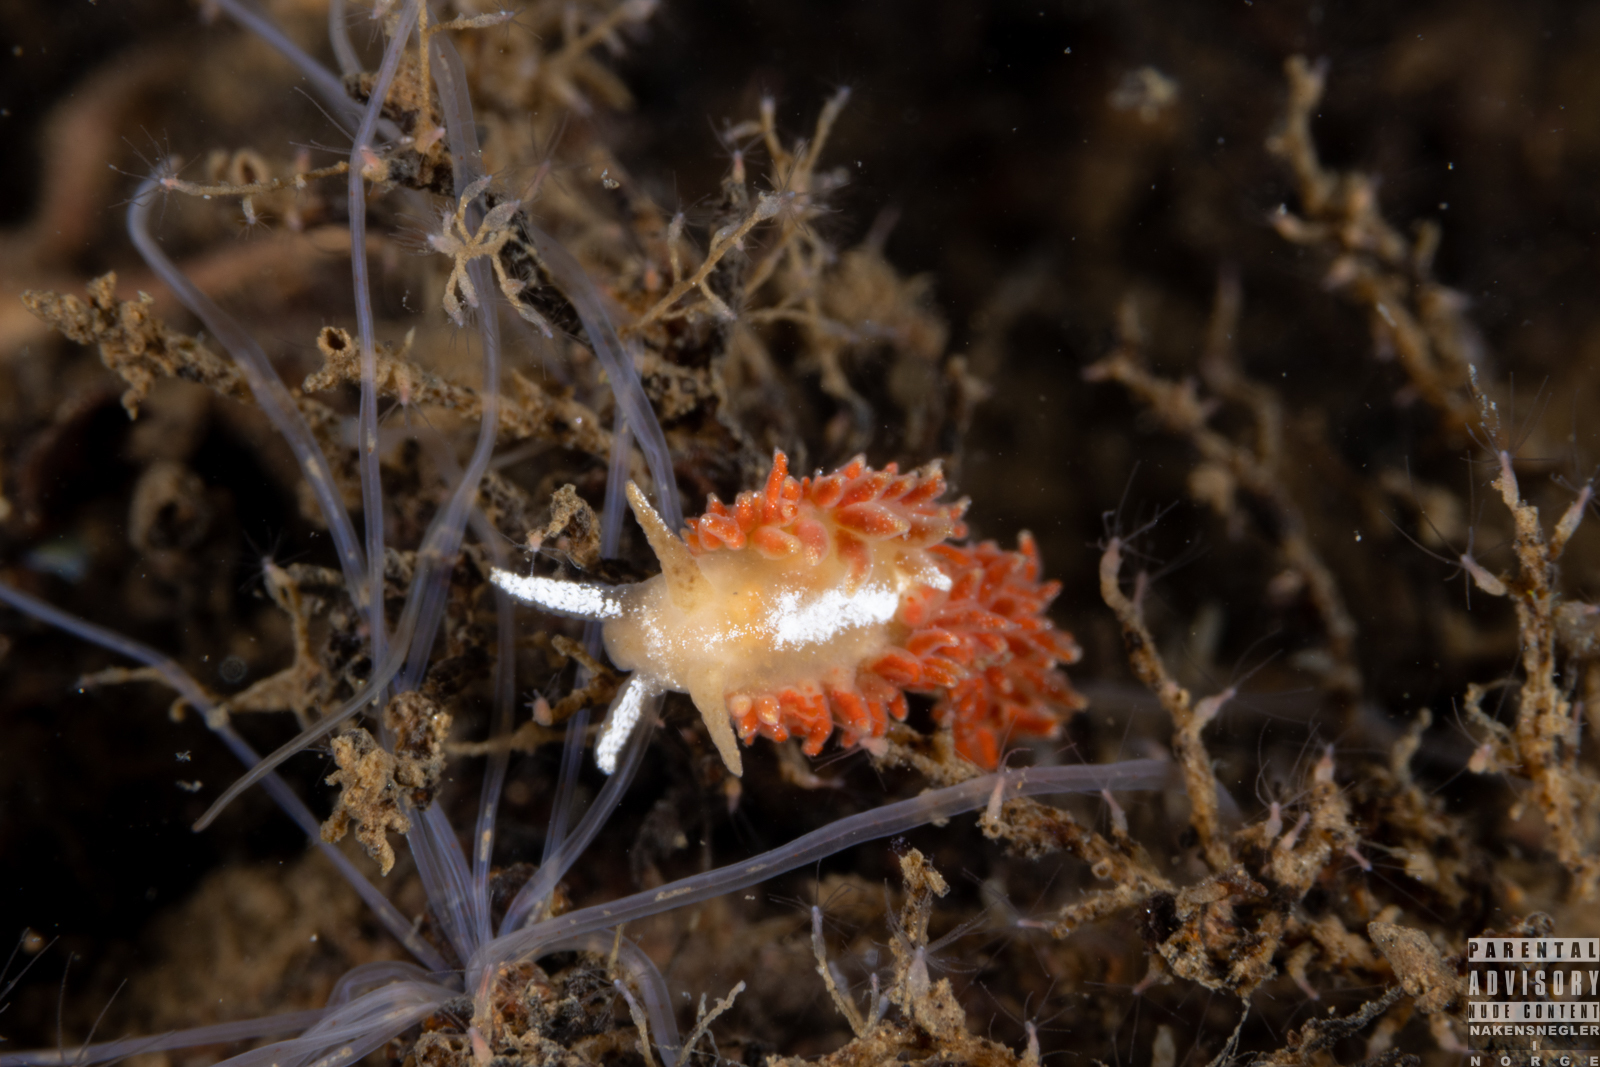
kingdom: Animalia
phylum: Mollusca
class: Gastropoda
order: Nudibranchia
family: Coryphellidae
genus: Coryphella
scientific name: Coryphella monicae
